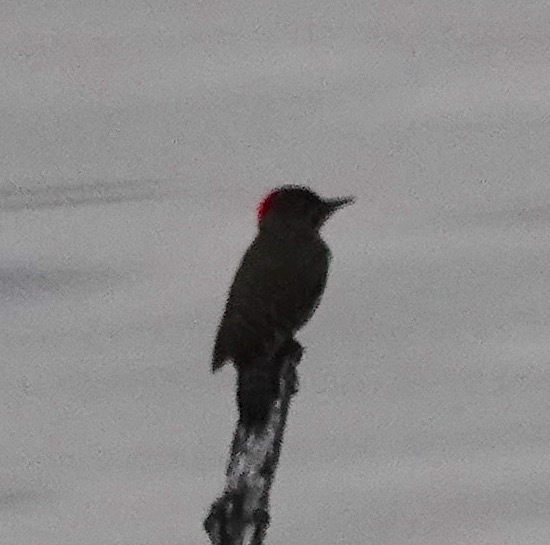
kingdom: Animalia
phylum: Chordata
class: Aves
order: Piciformes
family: Picidae
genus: Campethera
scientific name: Campethera notata
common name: Knysna woodpecker
